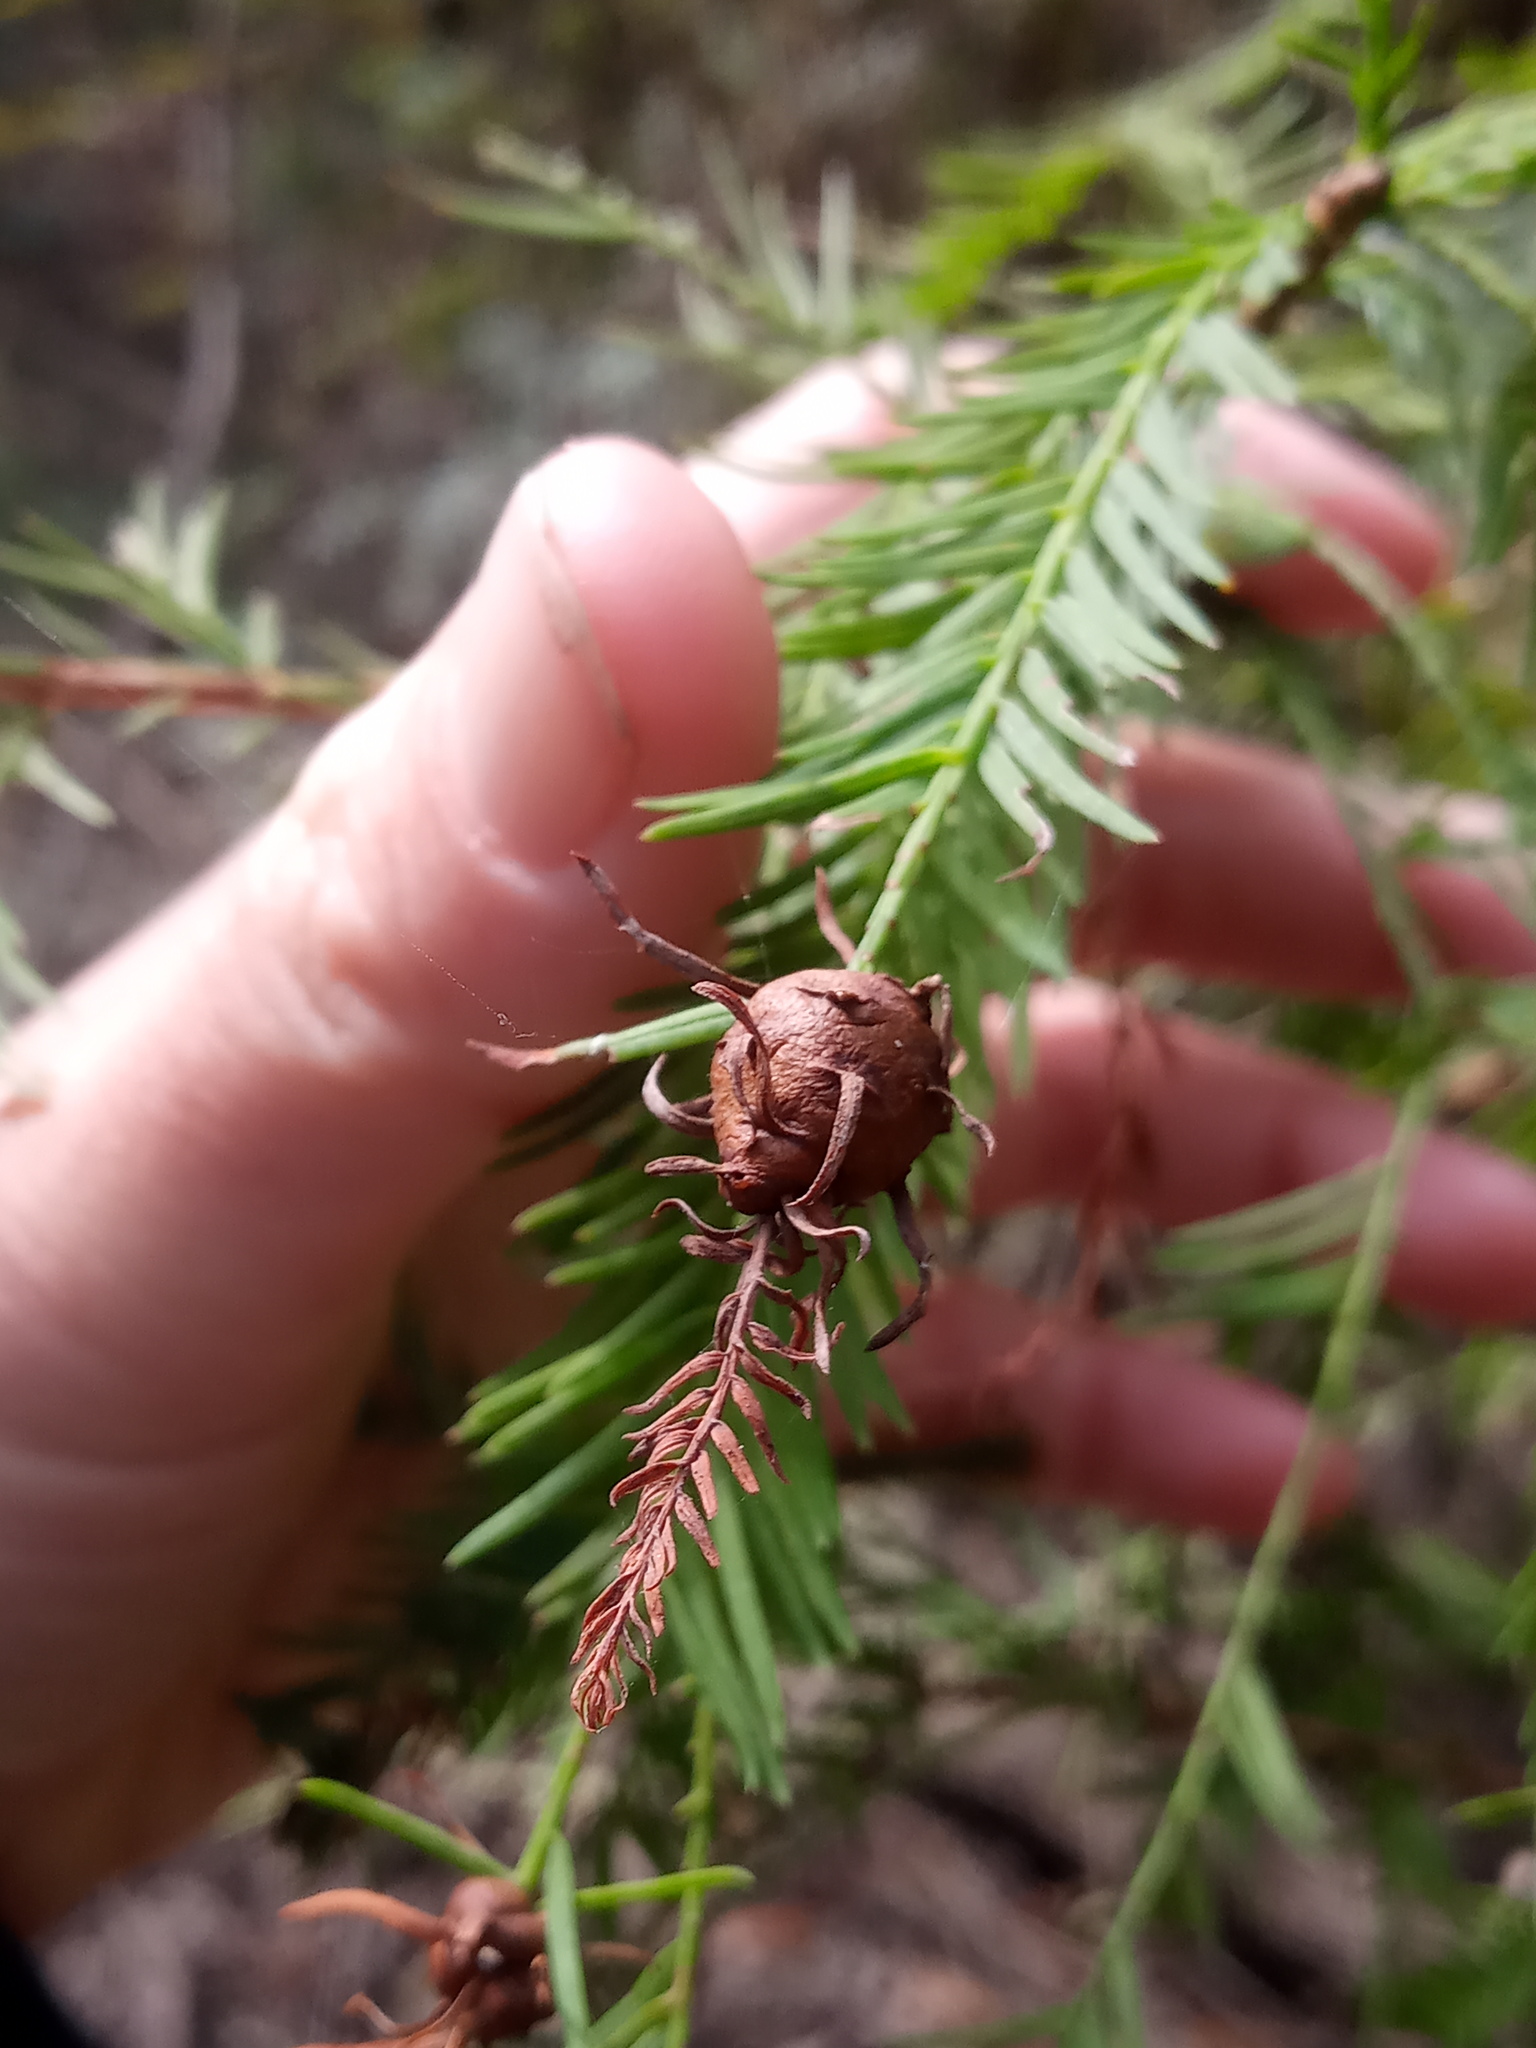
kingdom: Animalia
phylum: Arthropoda
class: Insecta
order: Diptera
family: Cecidomyiidae
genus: Taxodiomyia
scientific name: Taxodiomyia cupressiananassa
